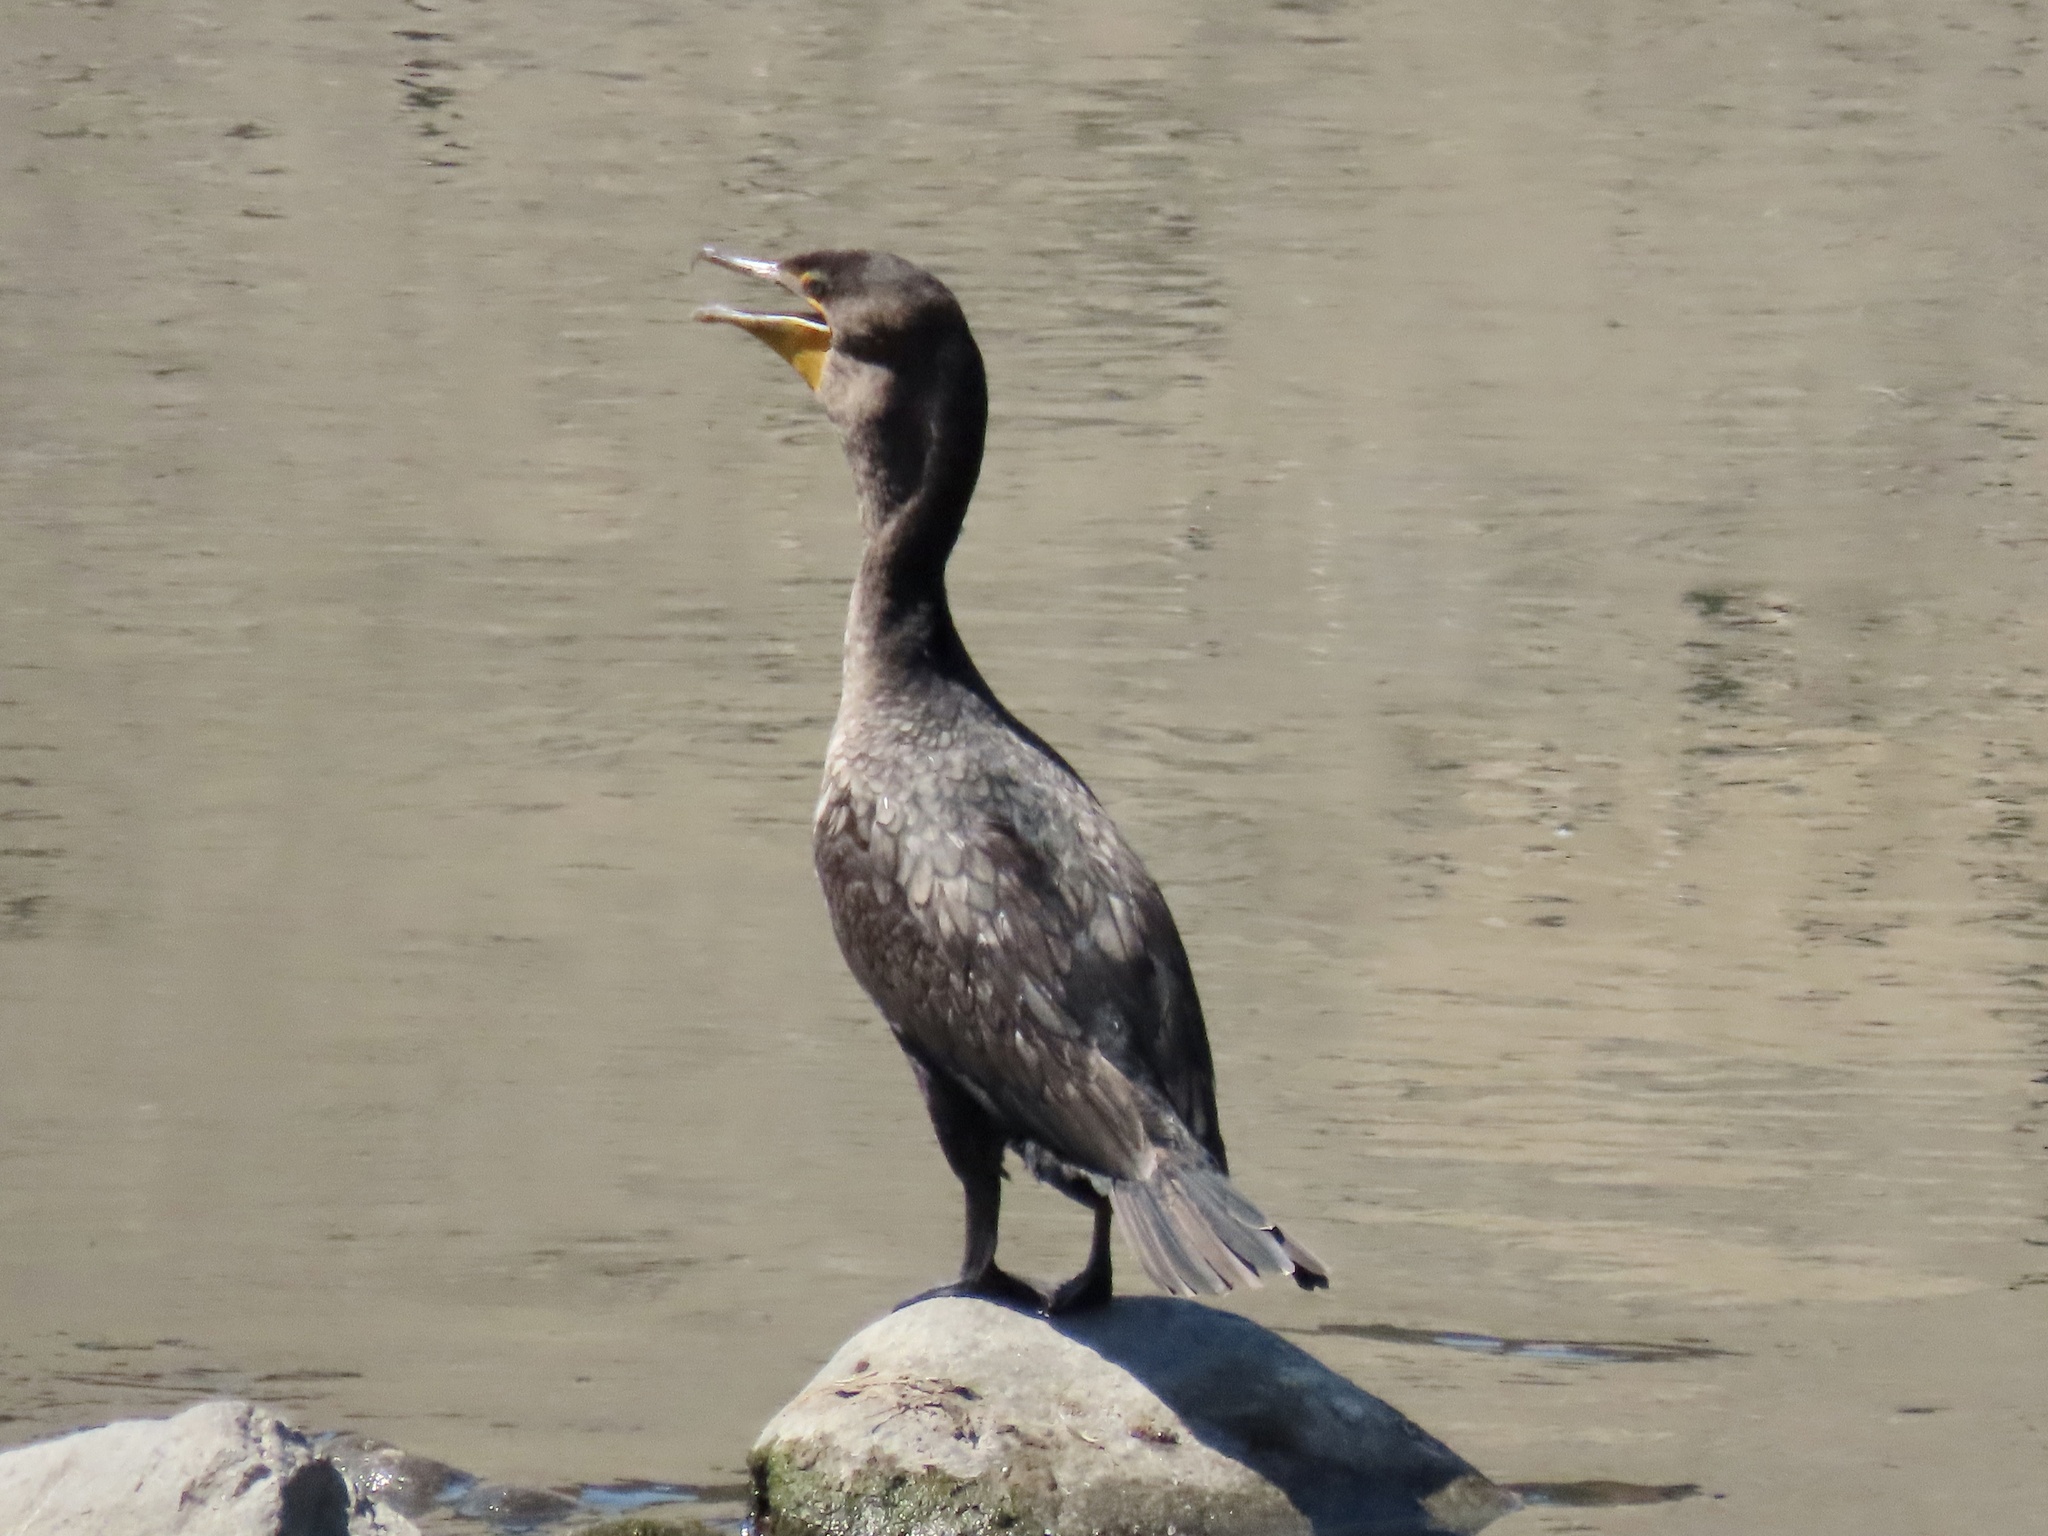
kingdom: Animalia
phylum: Chordata
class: Aves
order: Suliformes
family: Phalacrocoracidae
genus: Phalacrocorax
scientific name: Phalacrocorax auritus
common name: Double-crested cormorant
